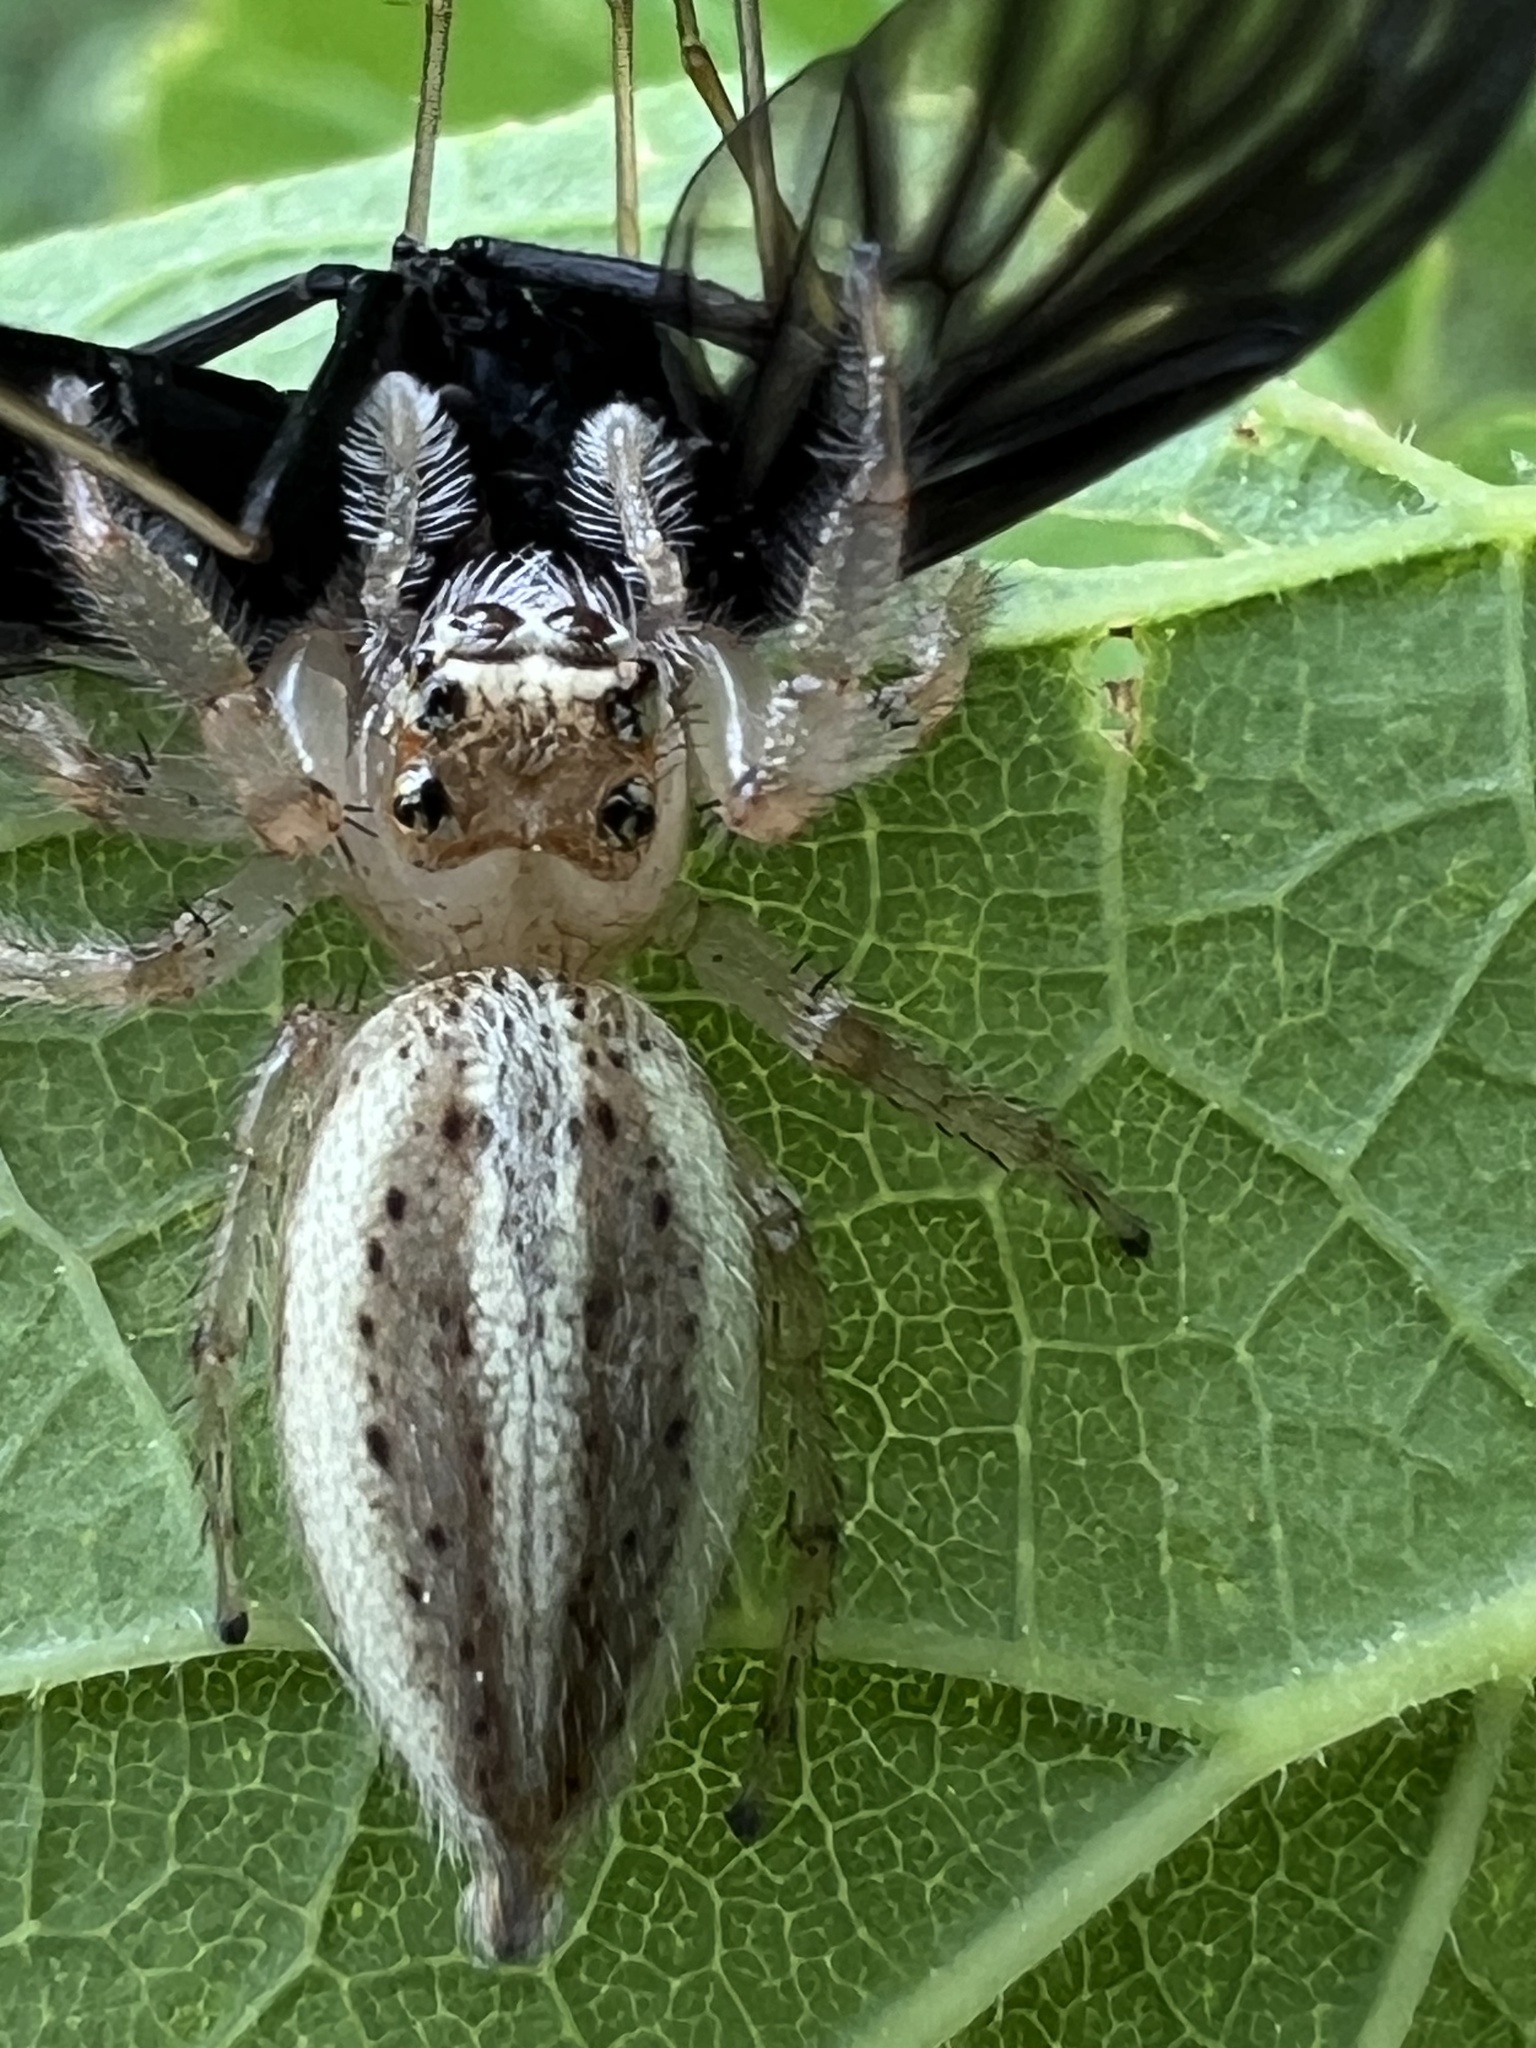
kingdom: Animalia
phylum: Arthropoda
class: Arachnida
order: Araneae
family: Salticidae
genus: Colonus
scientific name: Colonus sylvanus
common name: Jumping spiders
